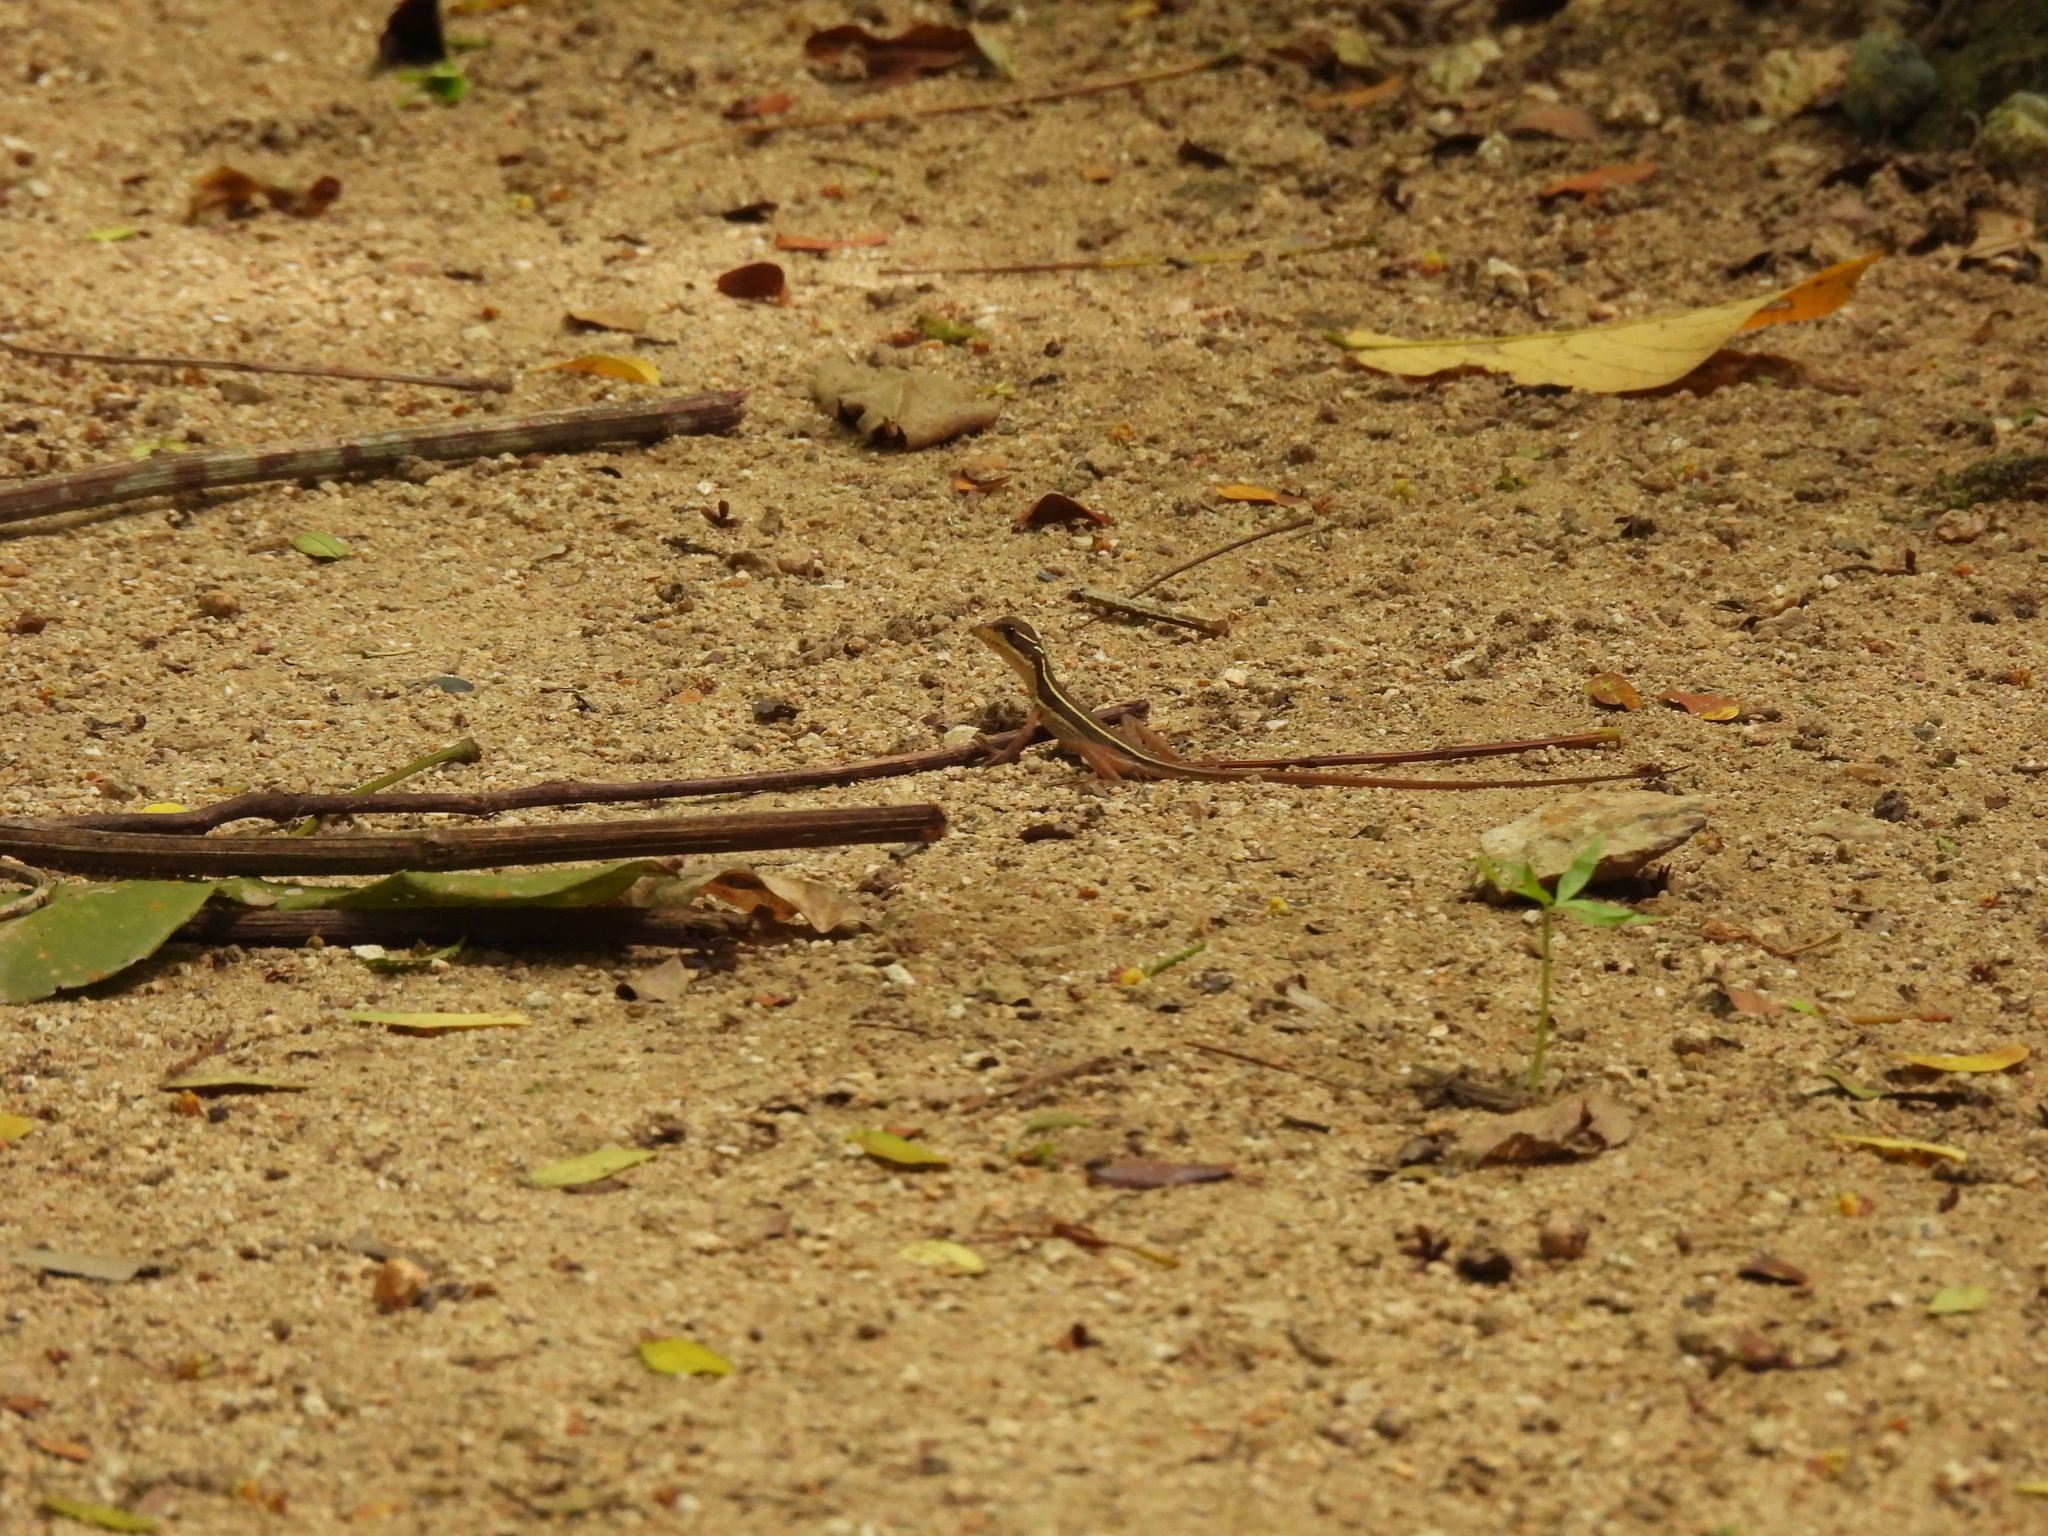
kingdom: Animalia
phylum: Chordata
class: Squamata
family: Corytophanidae
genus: Basiliscus
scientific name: Basiliscus vittatus
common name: Brown basilisk
